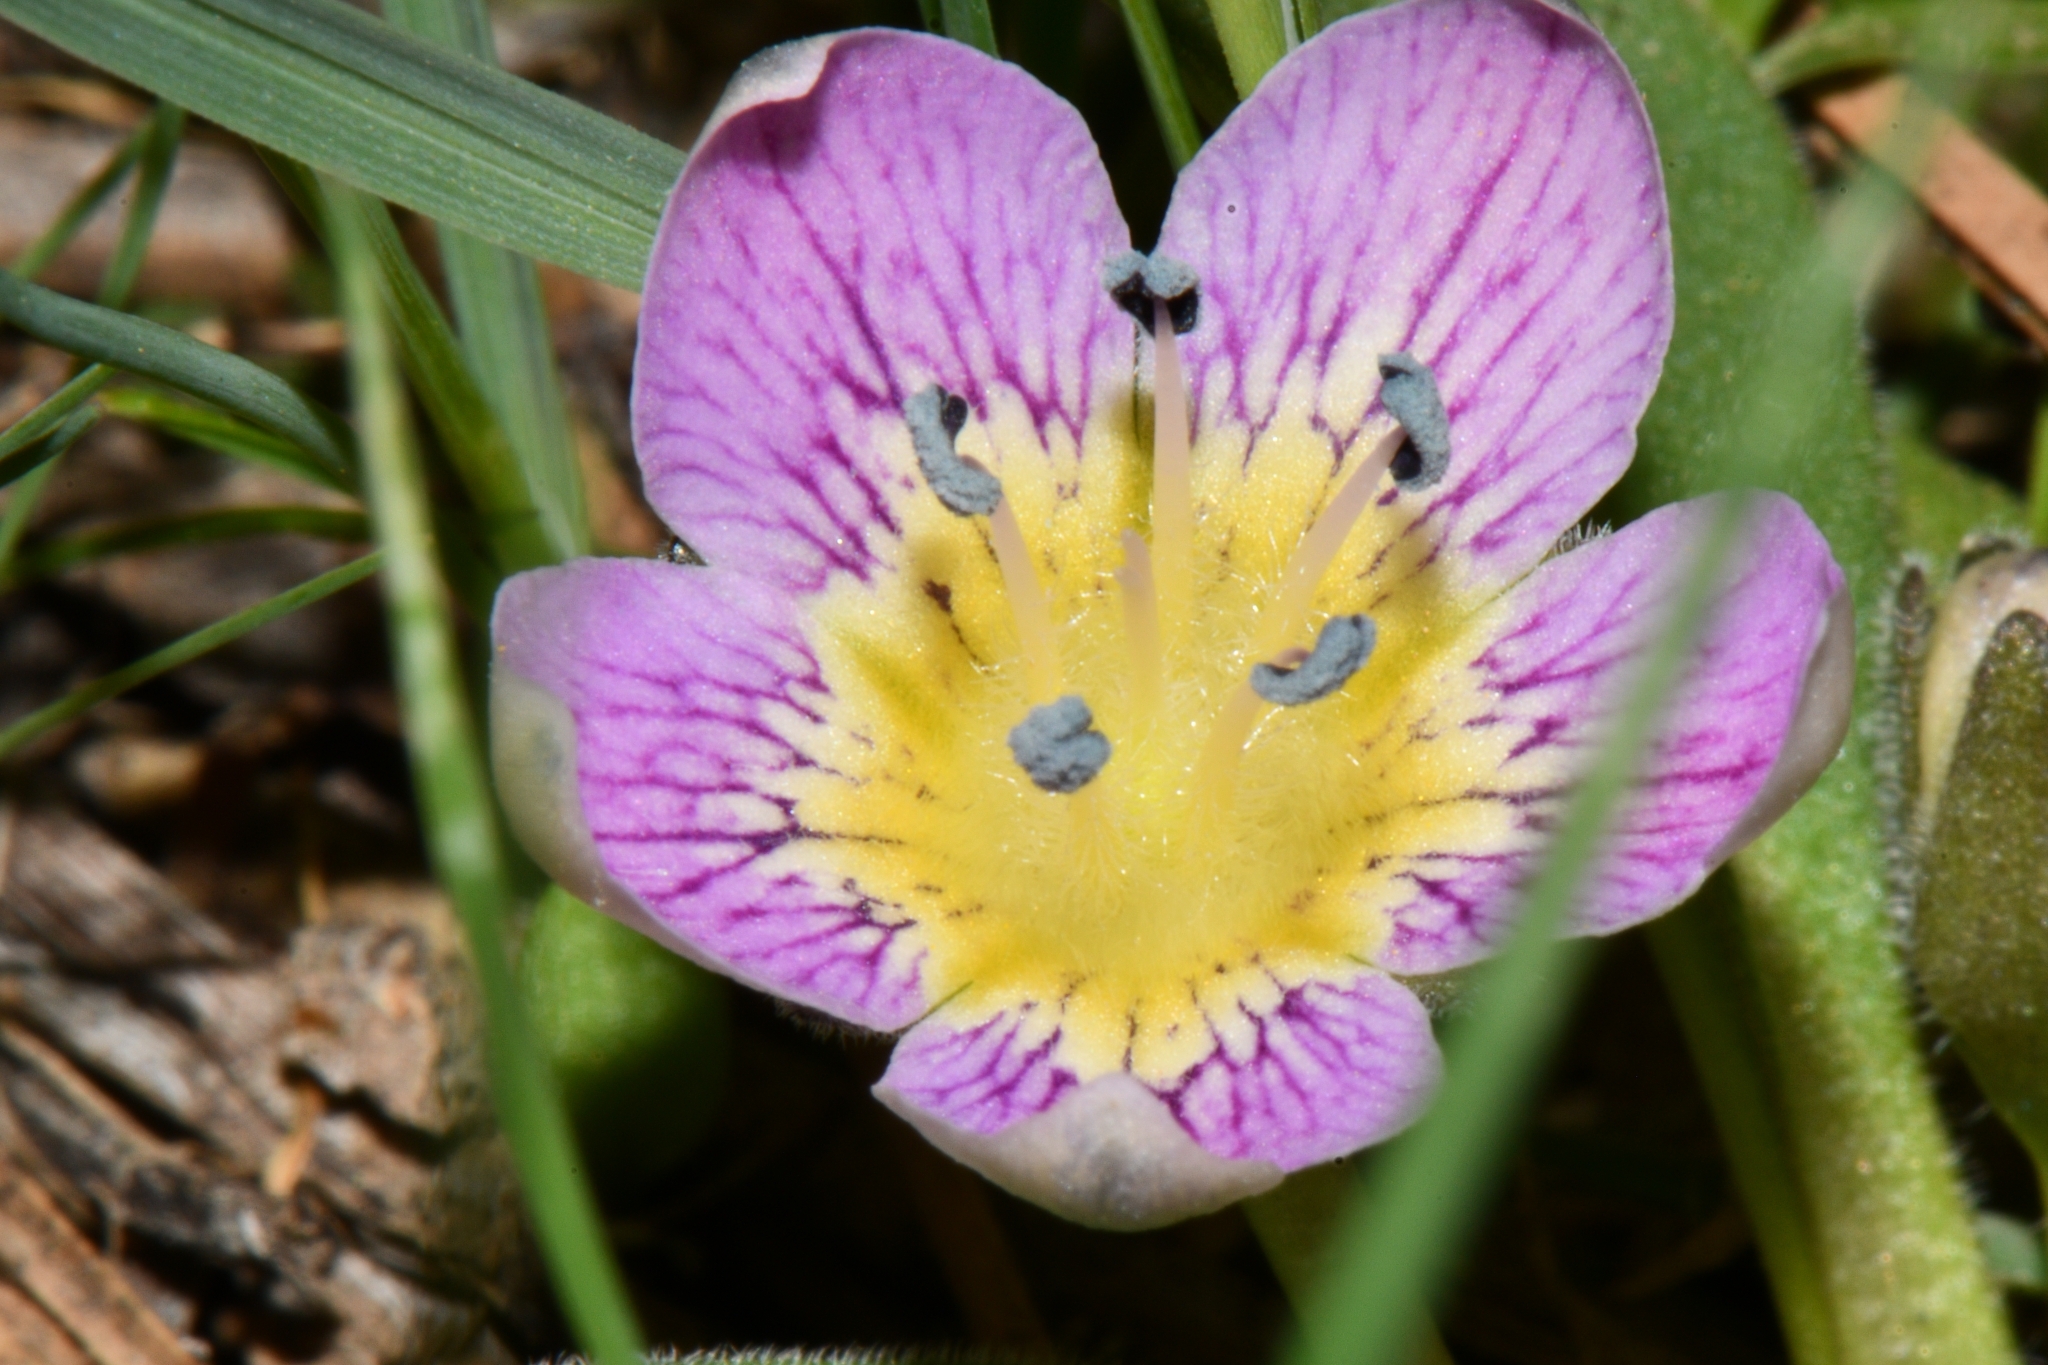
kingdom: Plantae
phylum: Tracheophyta
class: Magnoliopsida
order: Boraginales
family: Hydrophyllaceae
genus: Hesperochiron
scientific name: Hesperochiron pumilus
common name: Dwarf hesperochiron
